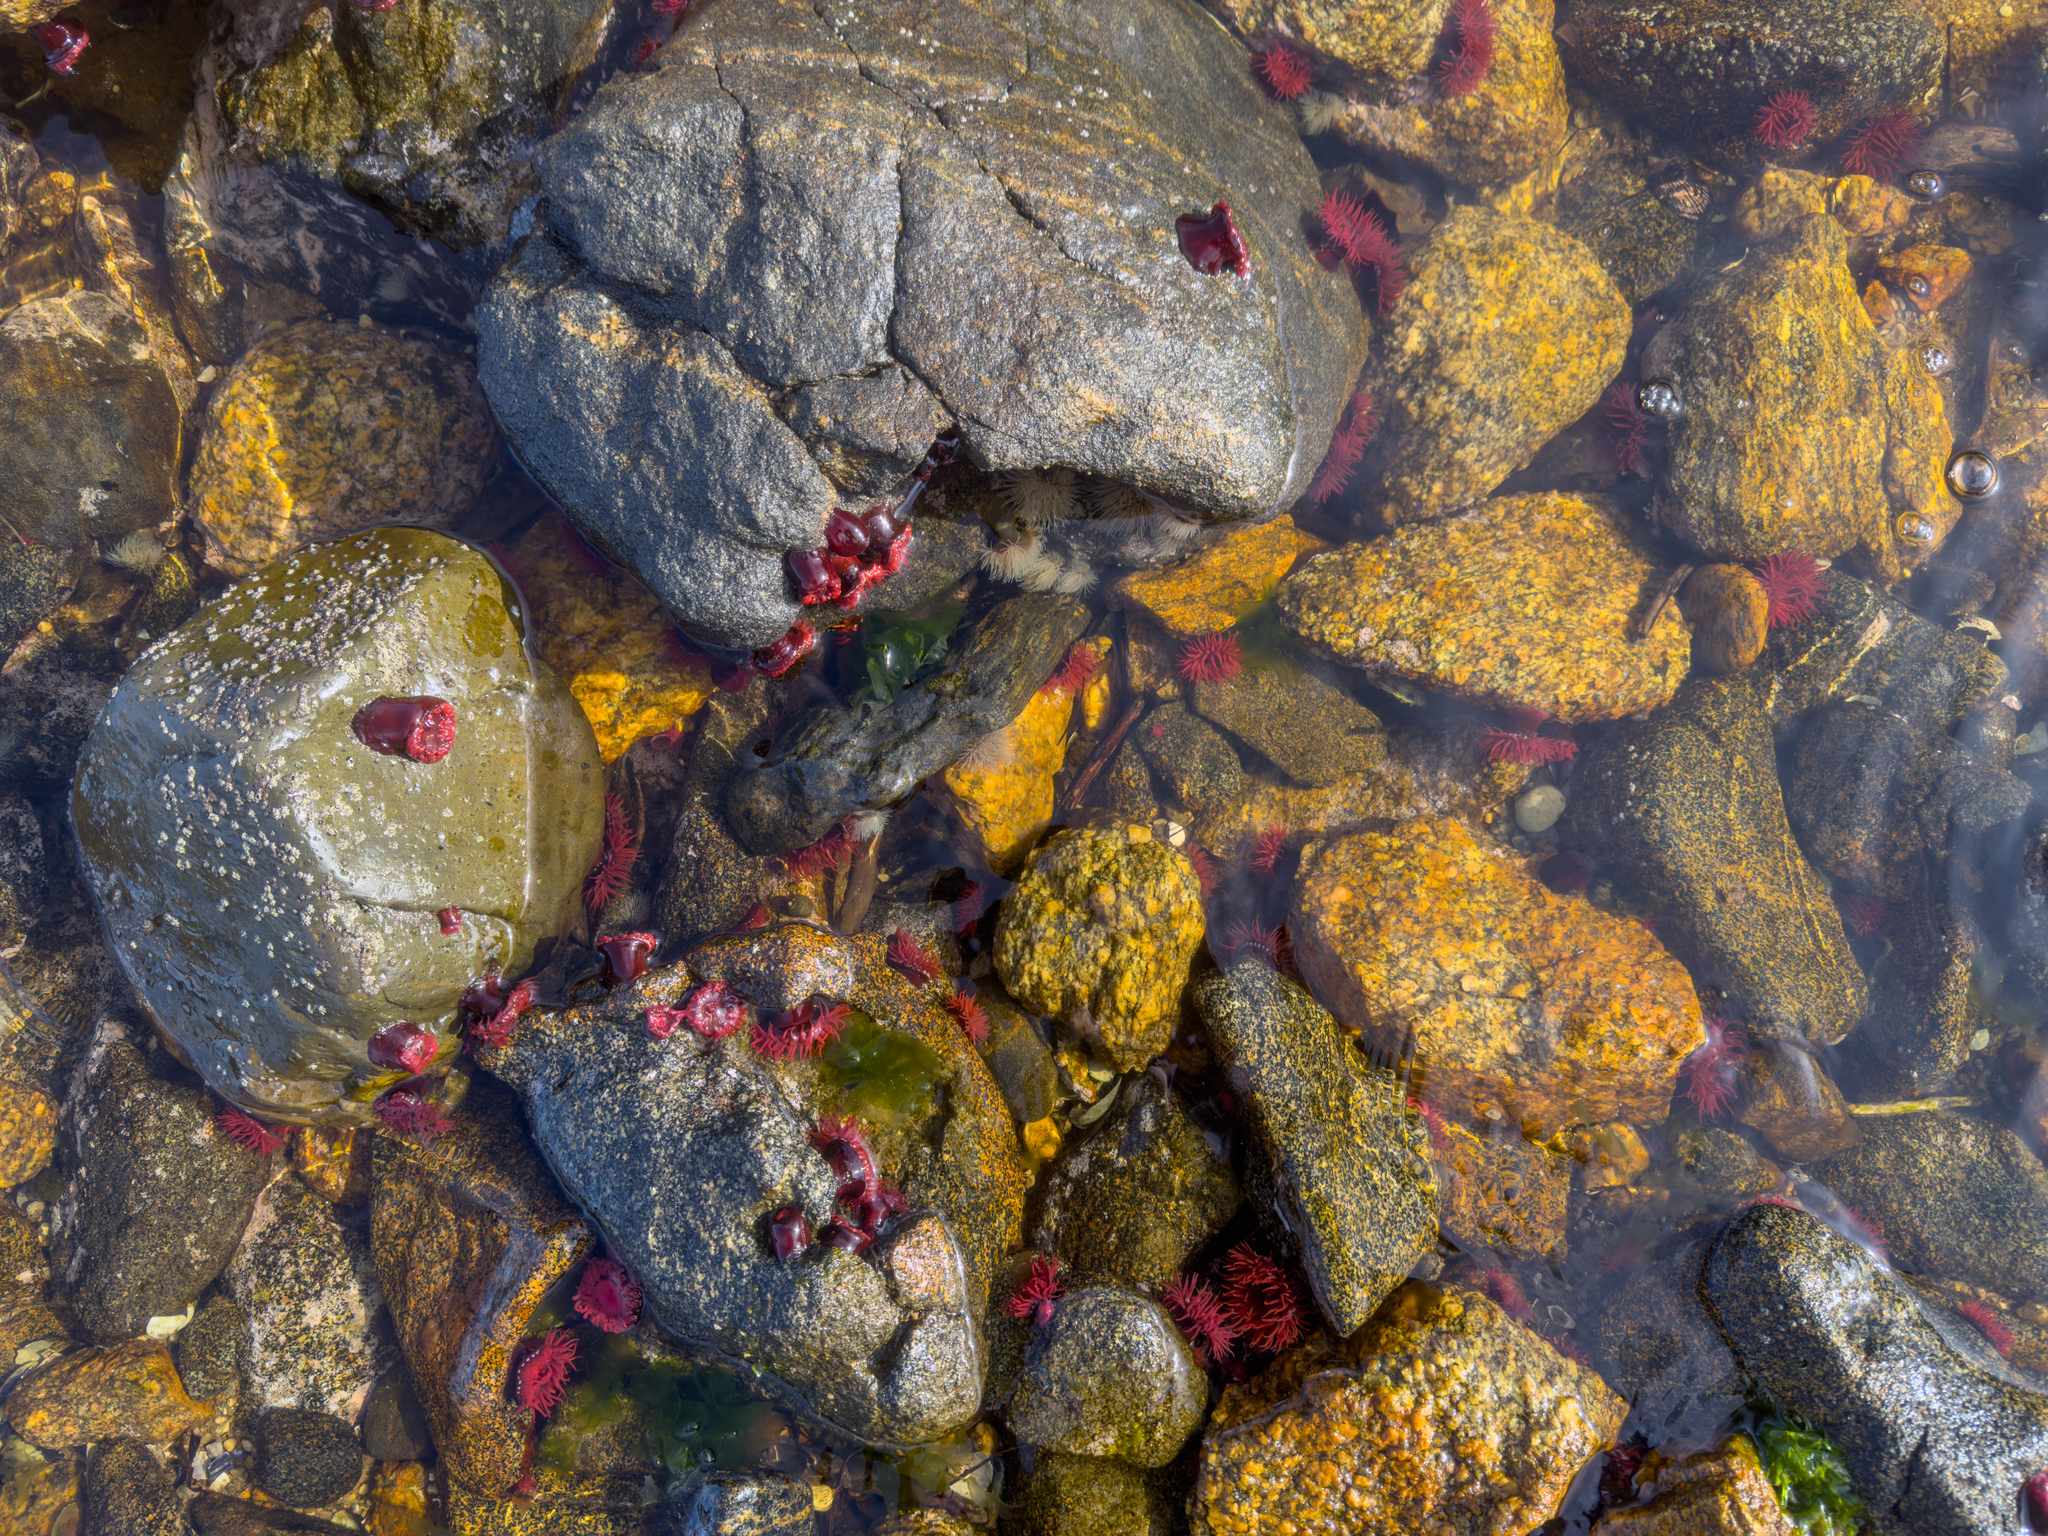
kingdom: Animalia
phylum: Cnidaria
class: Anthozoa
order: Actiniaria
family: Actiniidae
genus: Actinia
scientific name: Actinia tenebrosa
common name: Waratah anemone
